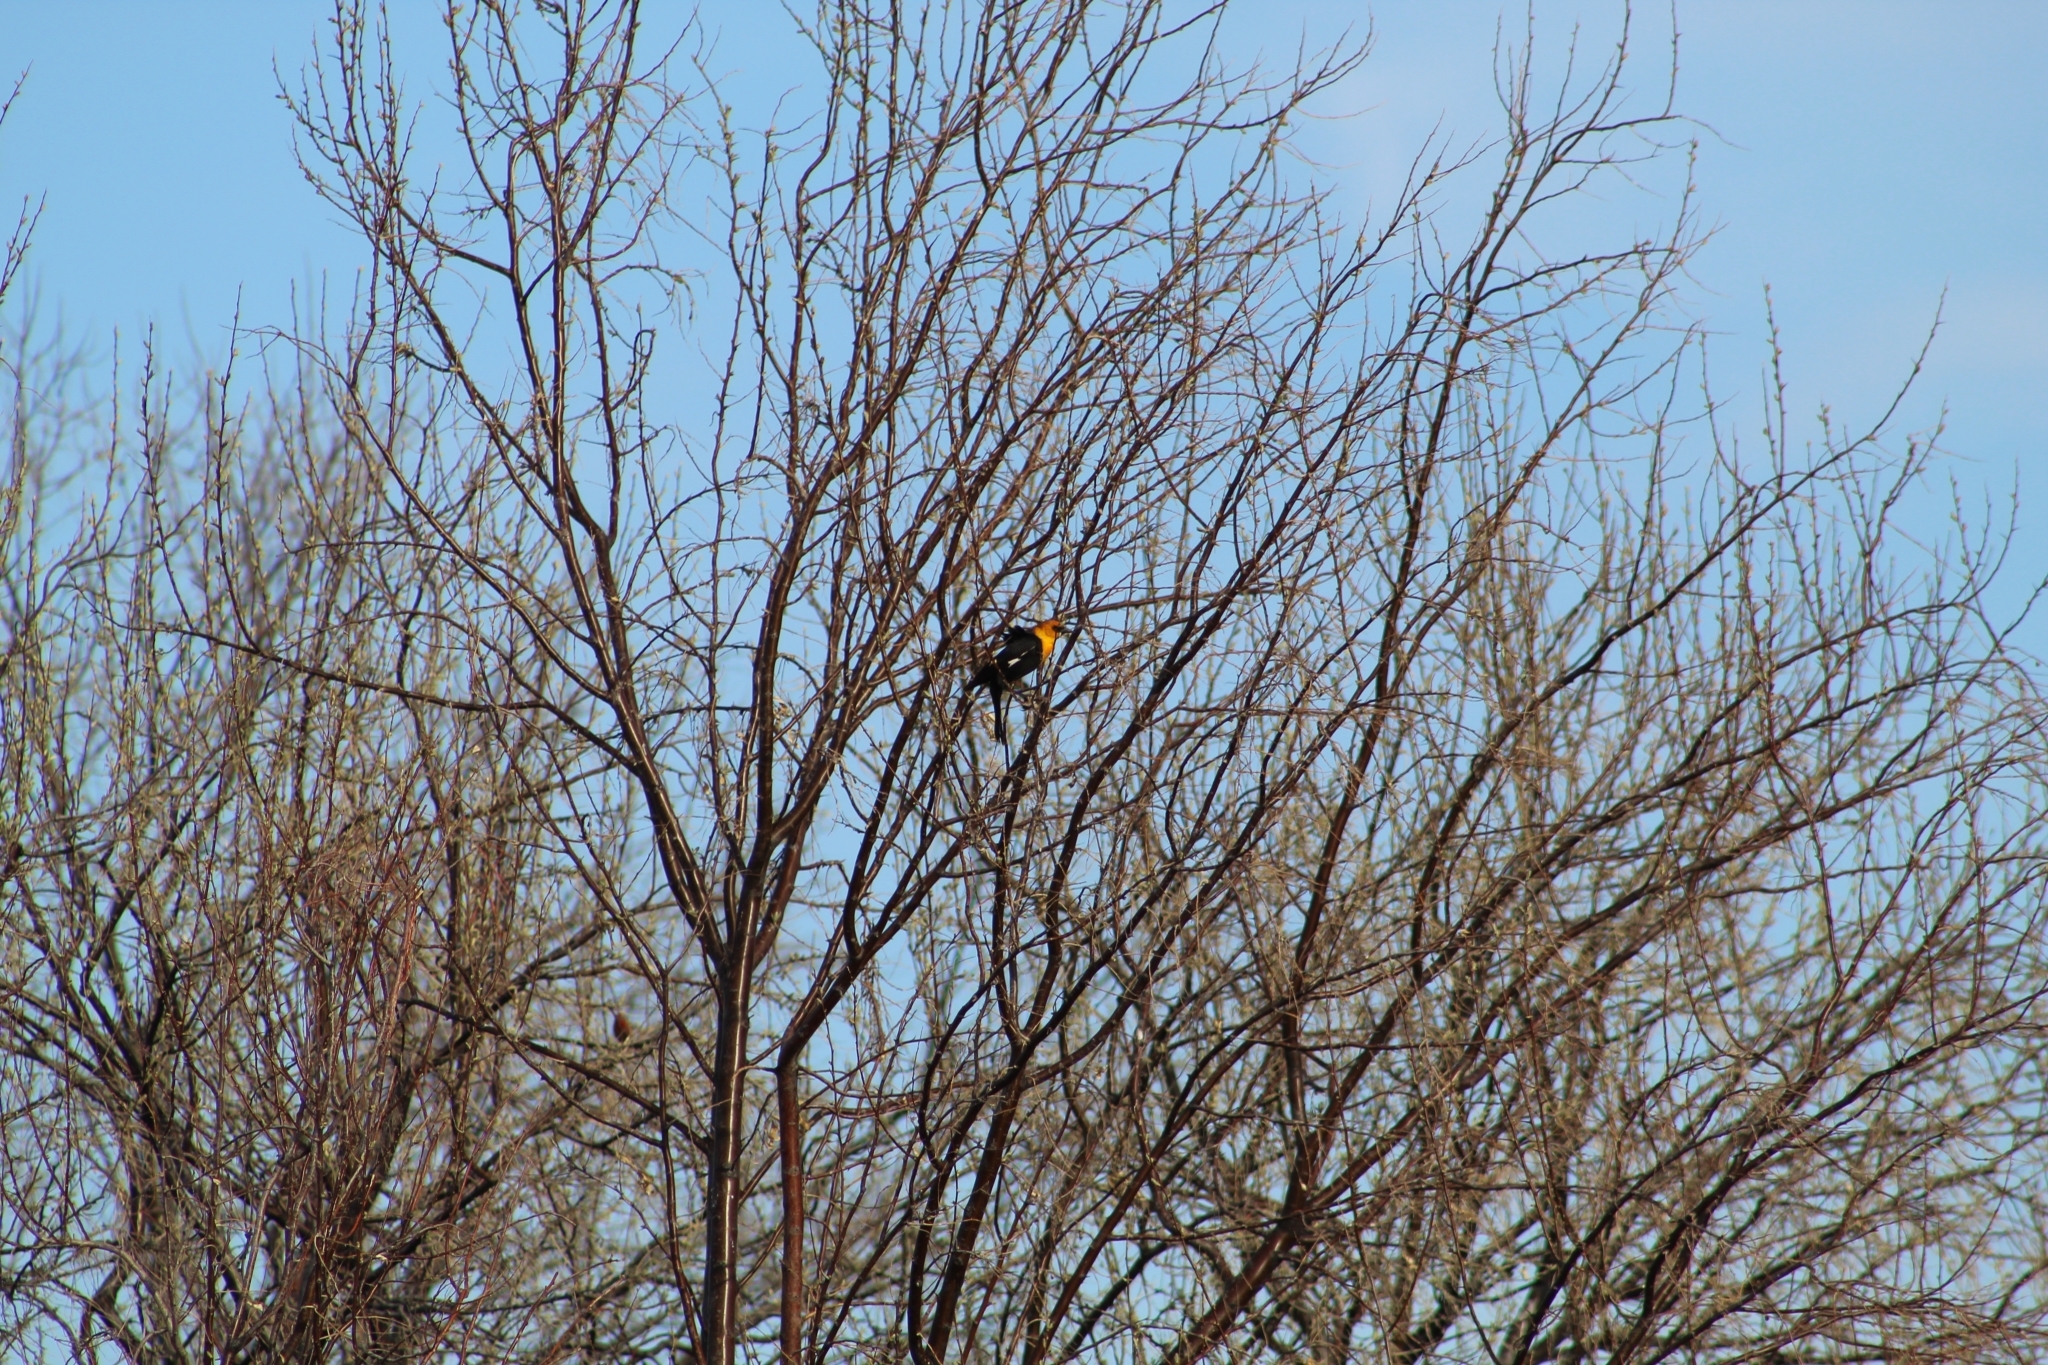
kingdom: Animalia
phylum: Chordata
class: Aves
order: Passeriformes
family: Icteridae
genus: Xanthocephalus
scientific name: Xanthocephalus xanthocephalus
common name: Yellow-headed blackbird
